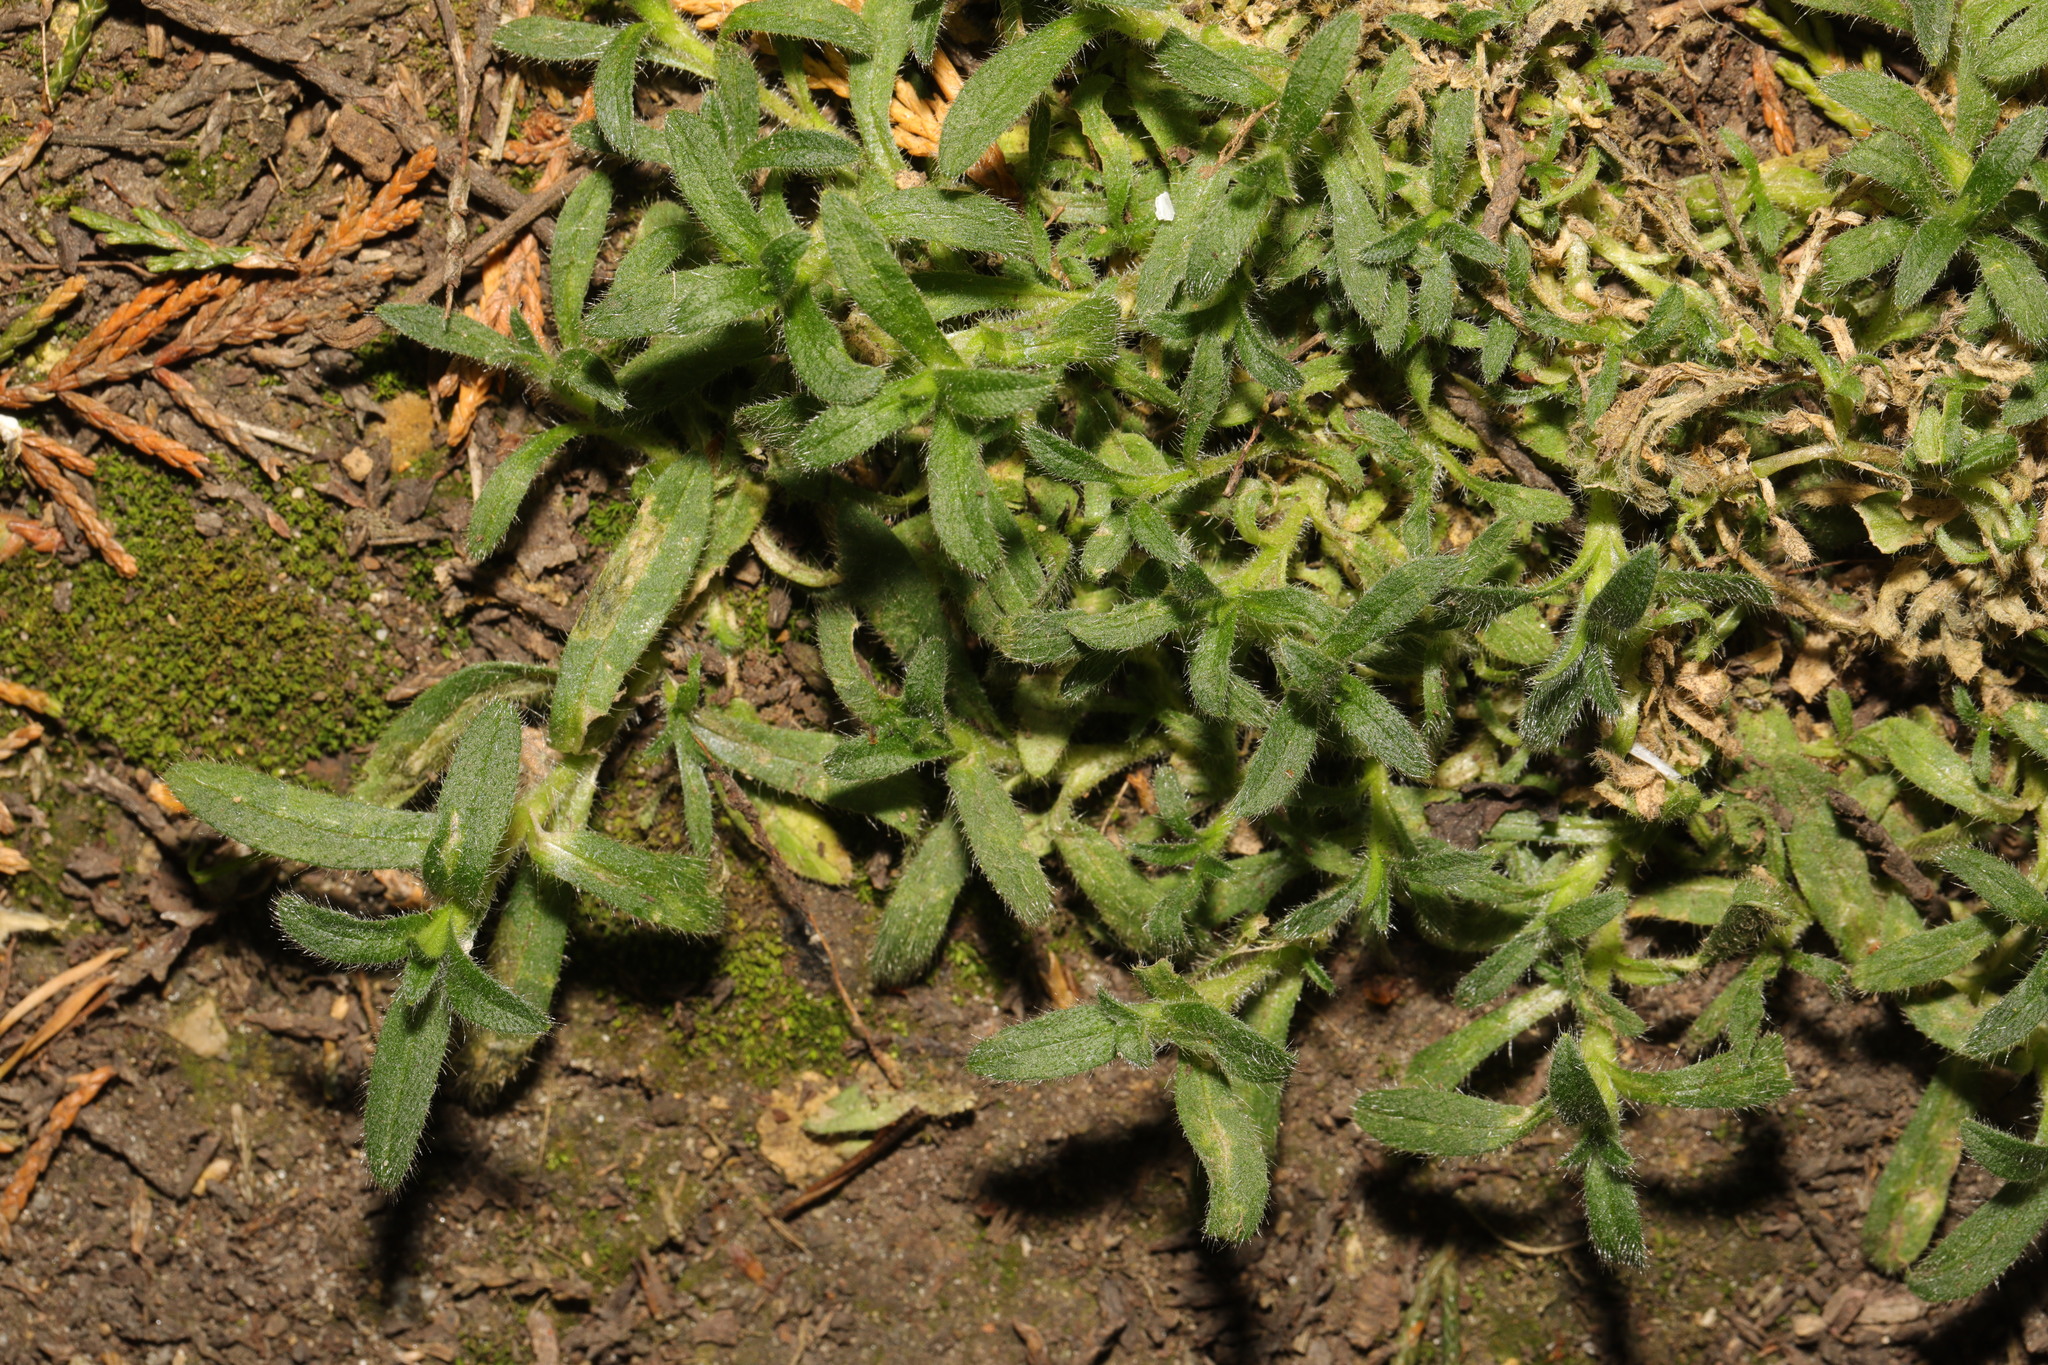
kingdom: Plantae
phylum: Tracheophyta
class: Magnoliopsida
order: Caryophyllales
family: Caryophyllaceae
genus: Cerastium
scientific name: Cerastium fontanum
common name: Common mouse-ear
